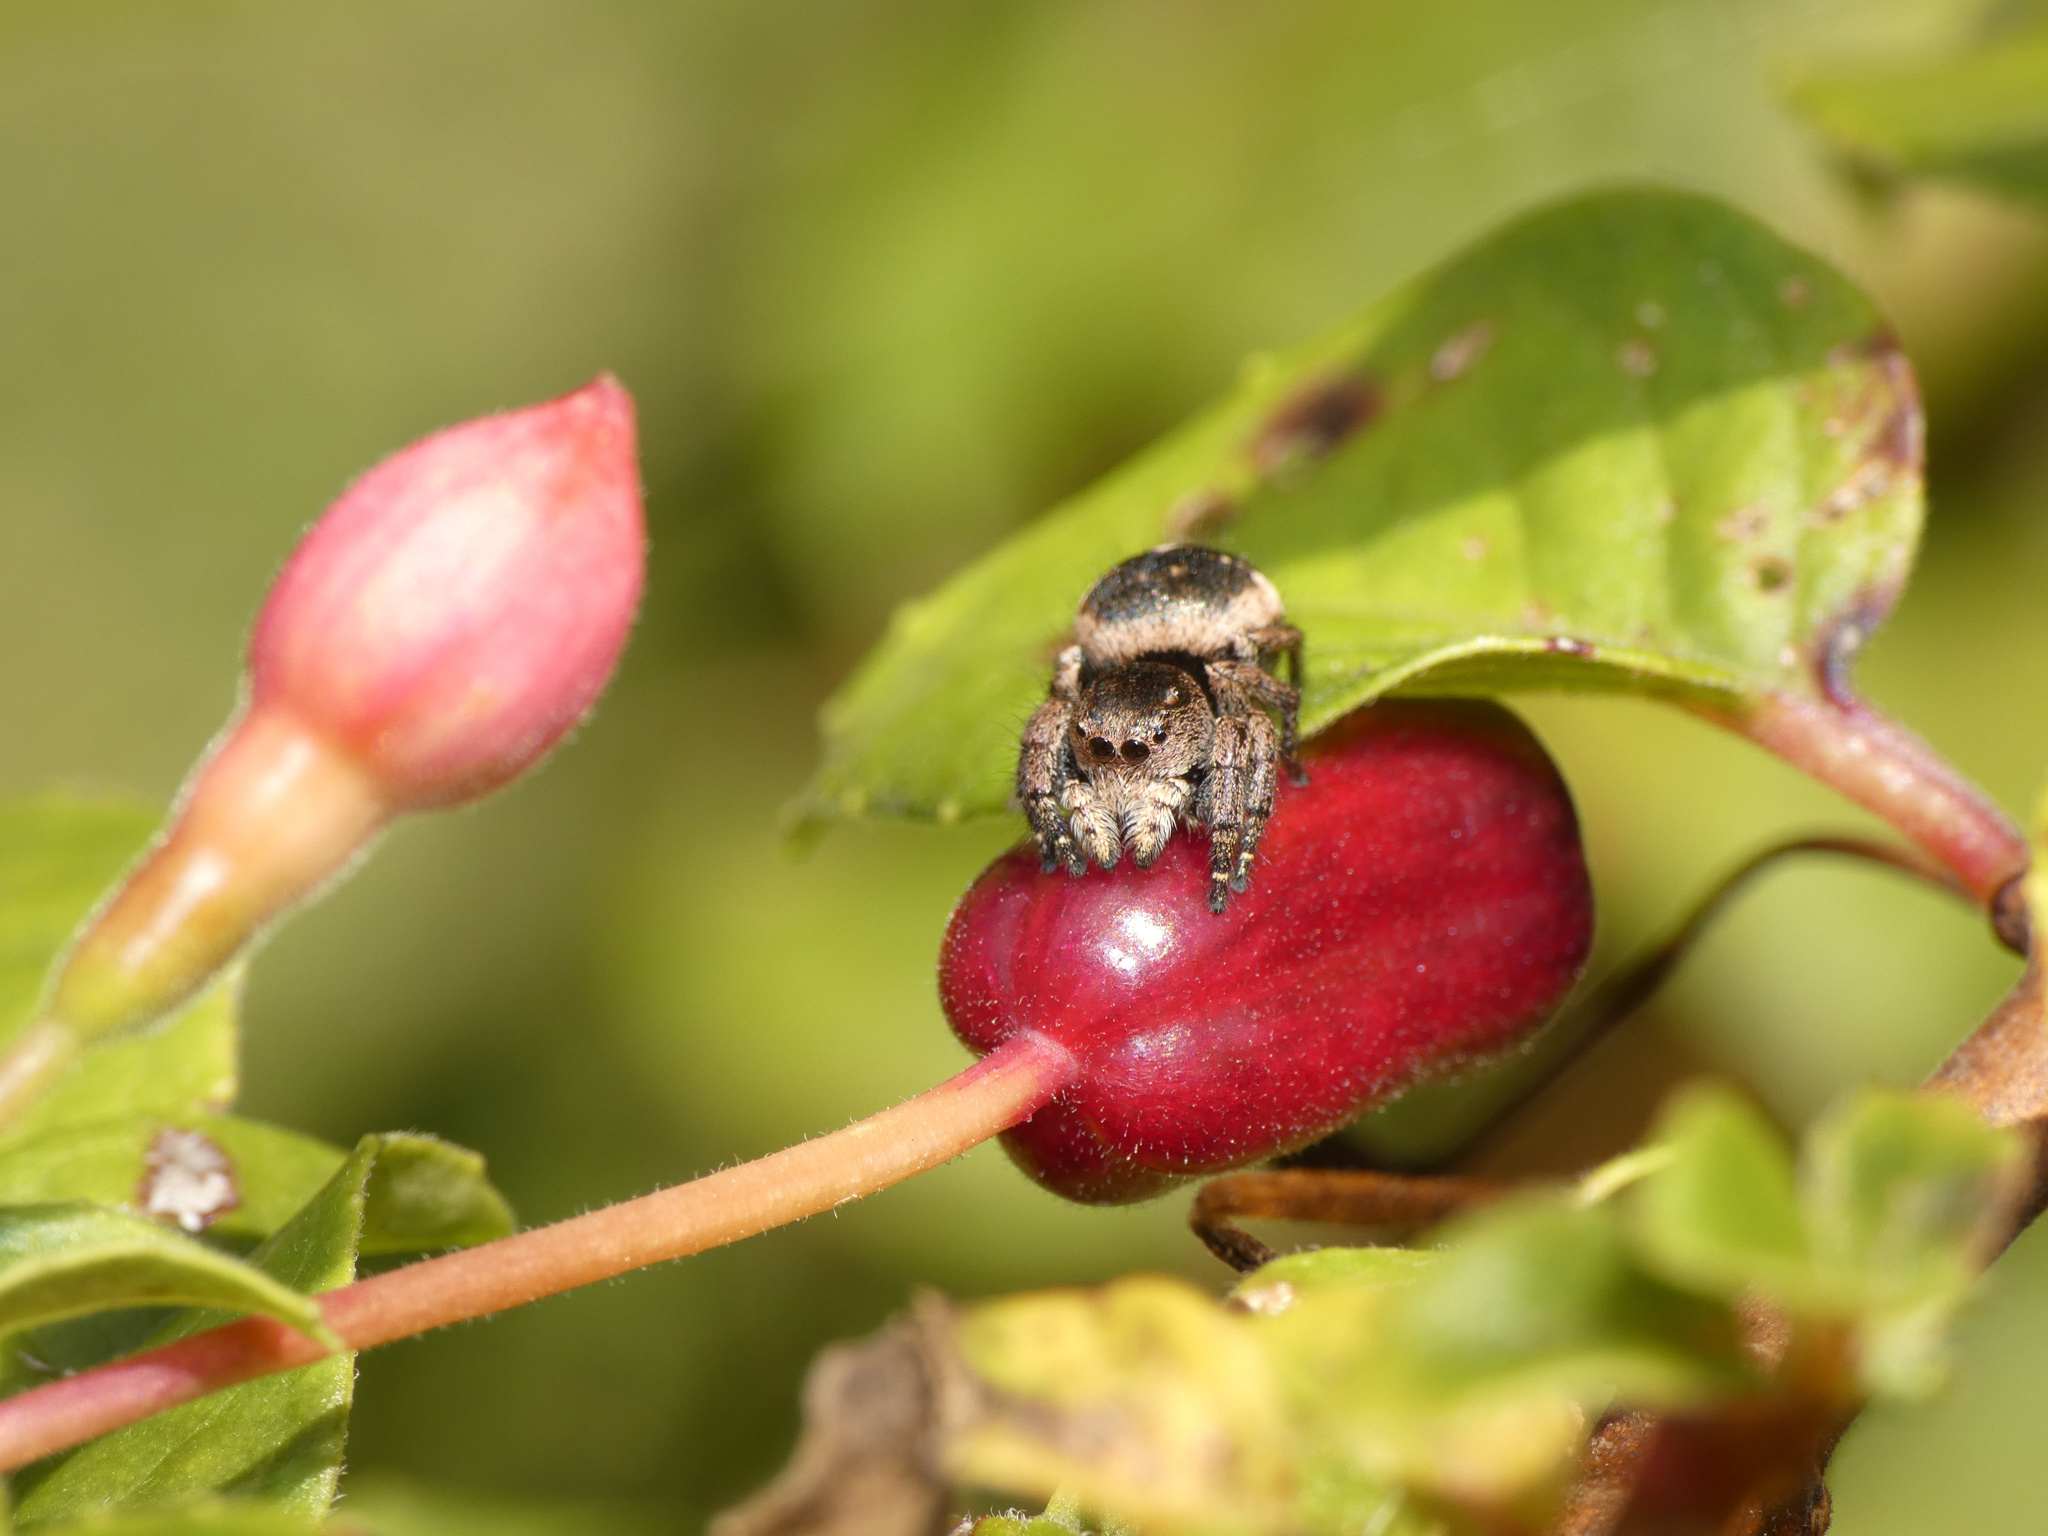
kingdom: Animalia
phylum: Arthropoda
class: Arachnida
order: Araneae
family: Salticidae
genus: Baryphas
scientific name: Baryphas ahenus
